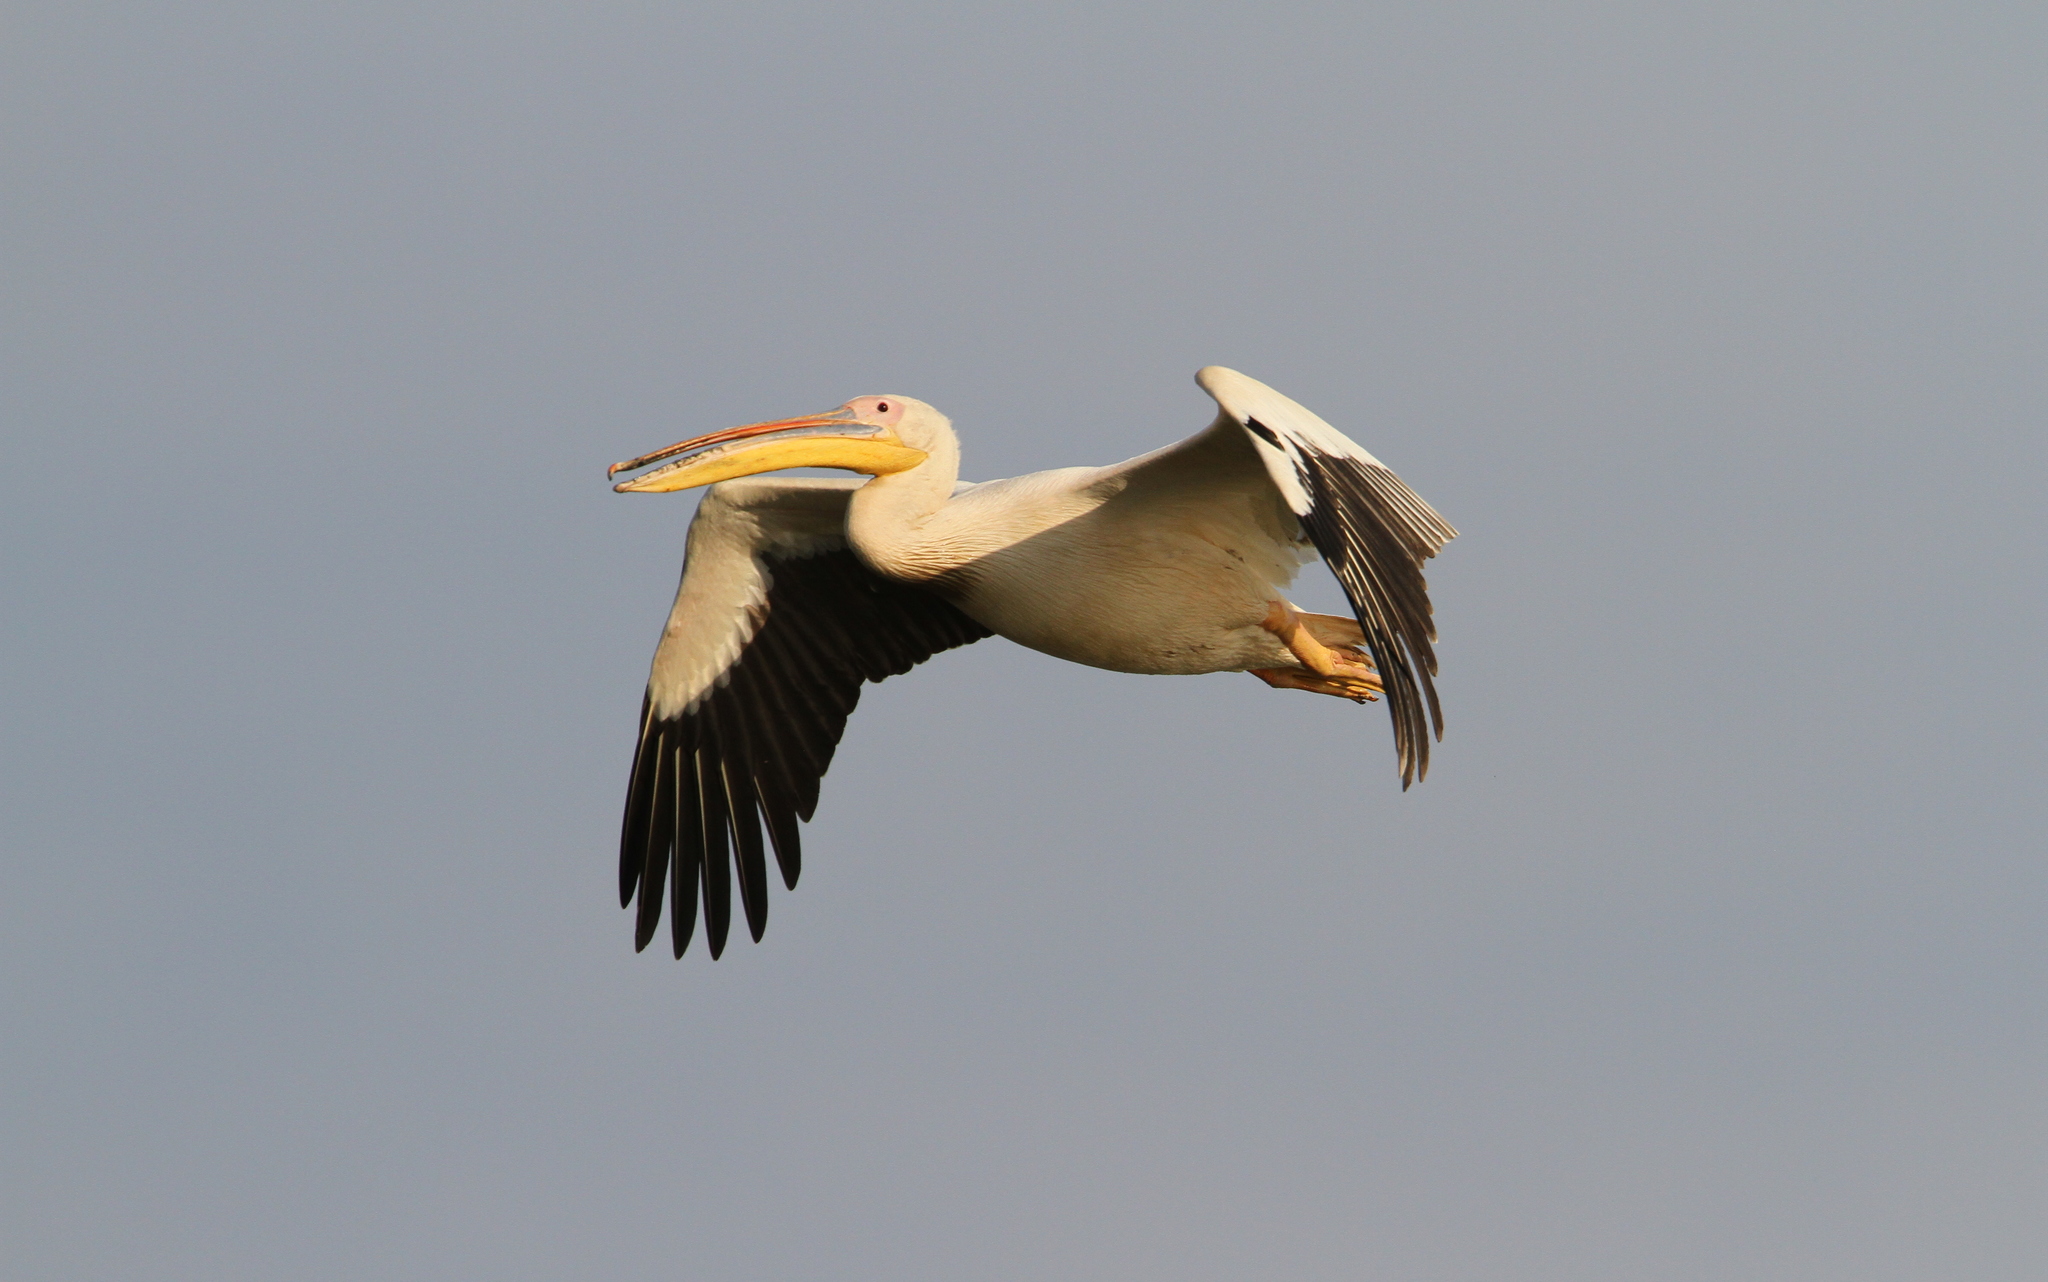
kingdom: Animalia
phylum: Chordata
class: Aves
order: Pelecaniformes
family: Pelecanidae
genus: Pelecanus
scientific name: Pelecanus onocrotalus
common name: Great white pelican
